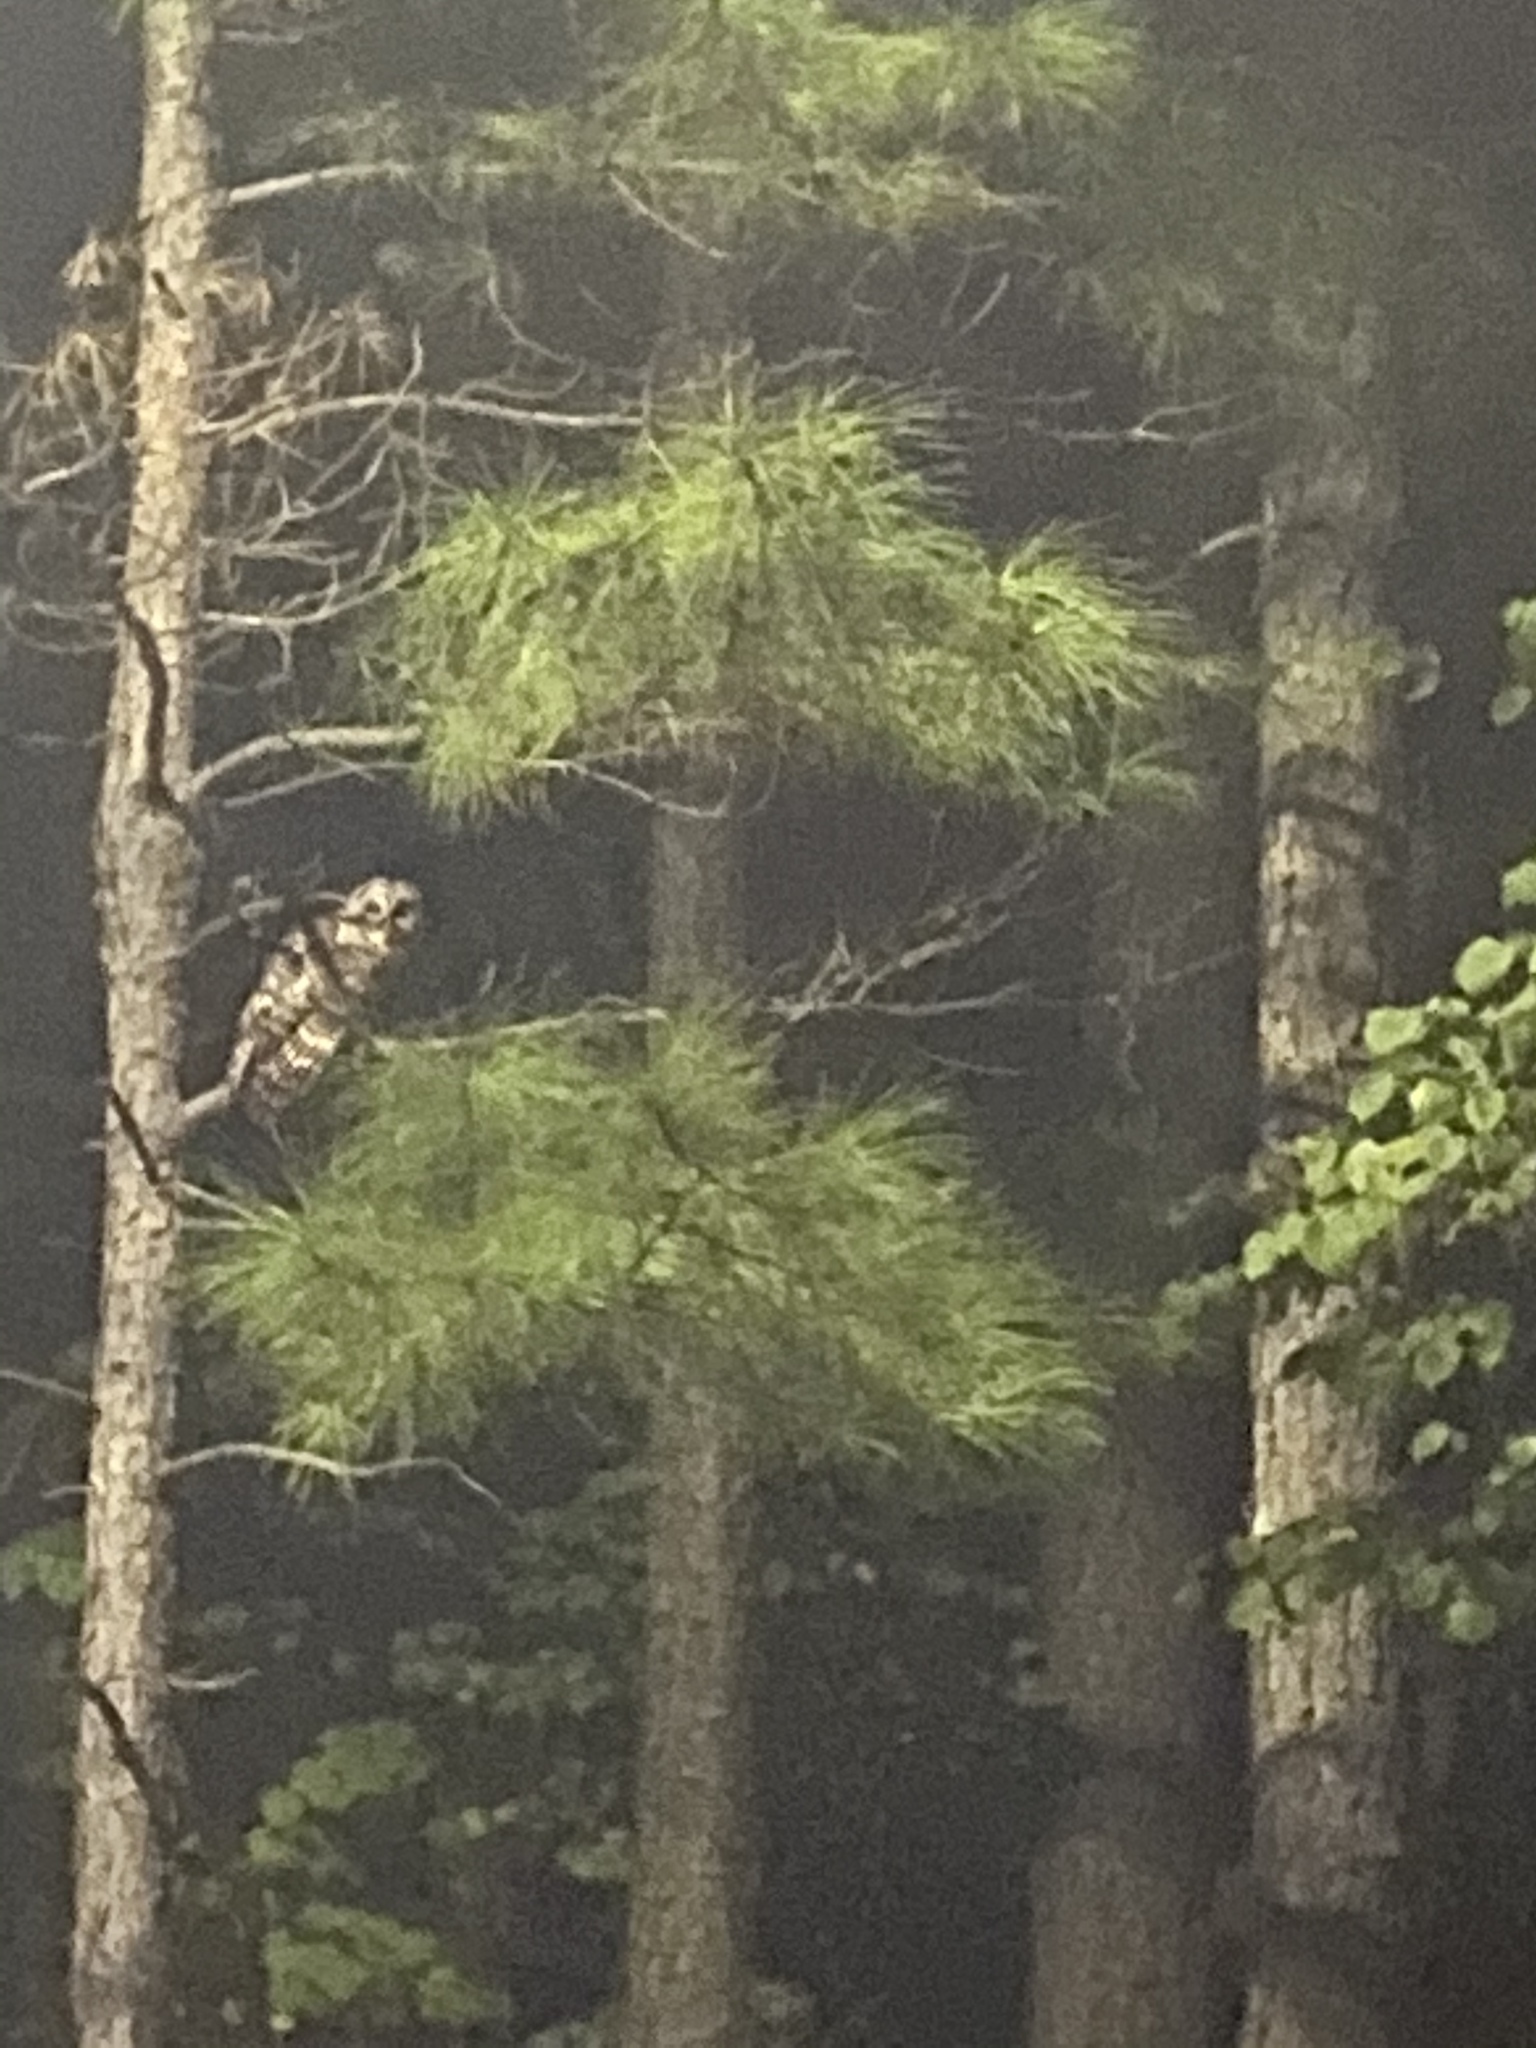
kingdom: Animalia
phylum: Chordata
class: Aves
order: Strigiformes
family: Strigidae
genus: Strix
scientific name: Strix varia
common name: Barred owl
